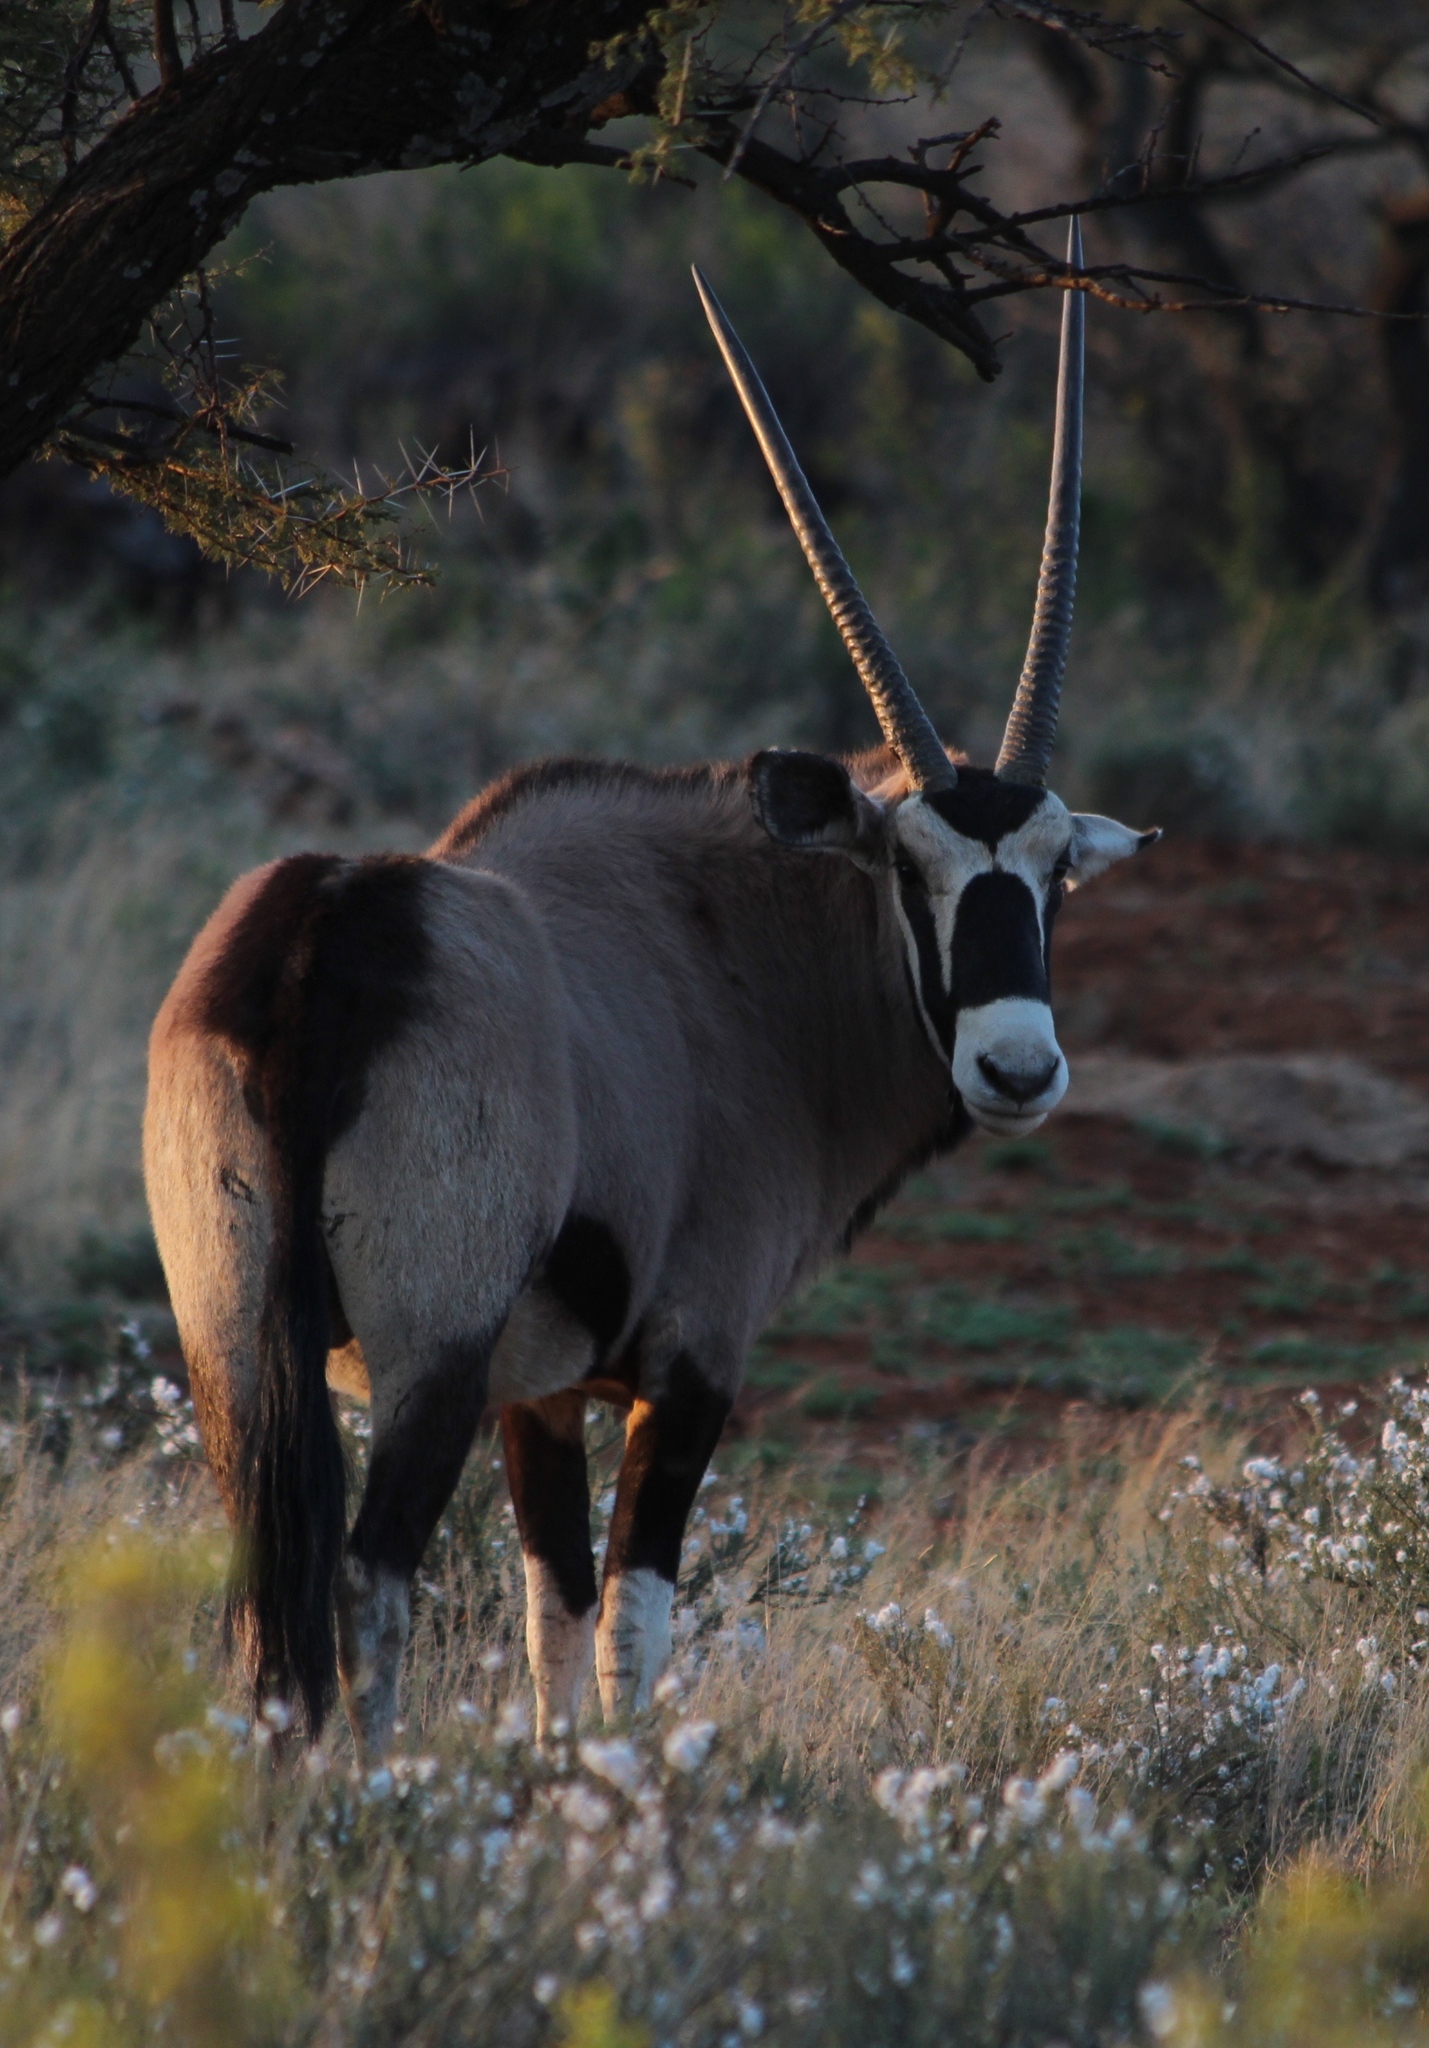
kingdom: Animalia
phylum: Chordata
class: Mammalia
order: Artiodactyla
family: Bovidae
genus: Oryx
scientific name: Oryx gazella
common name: Gemsbok
